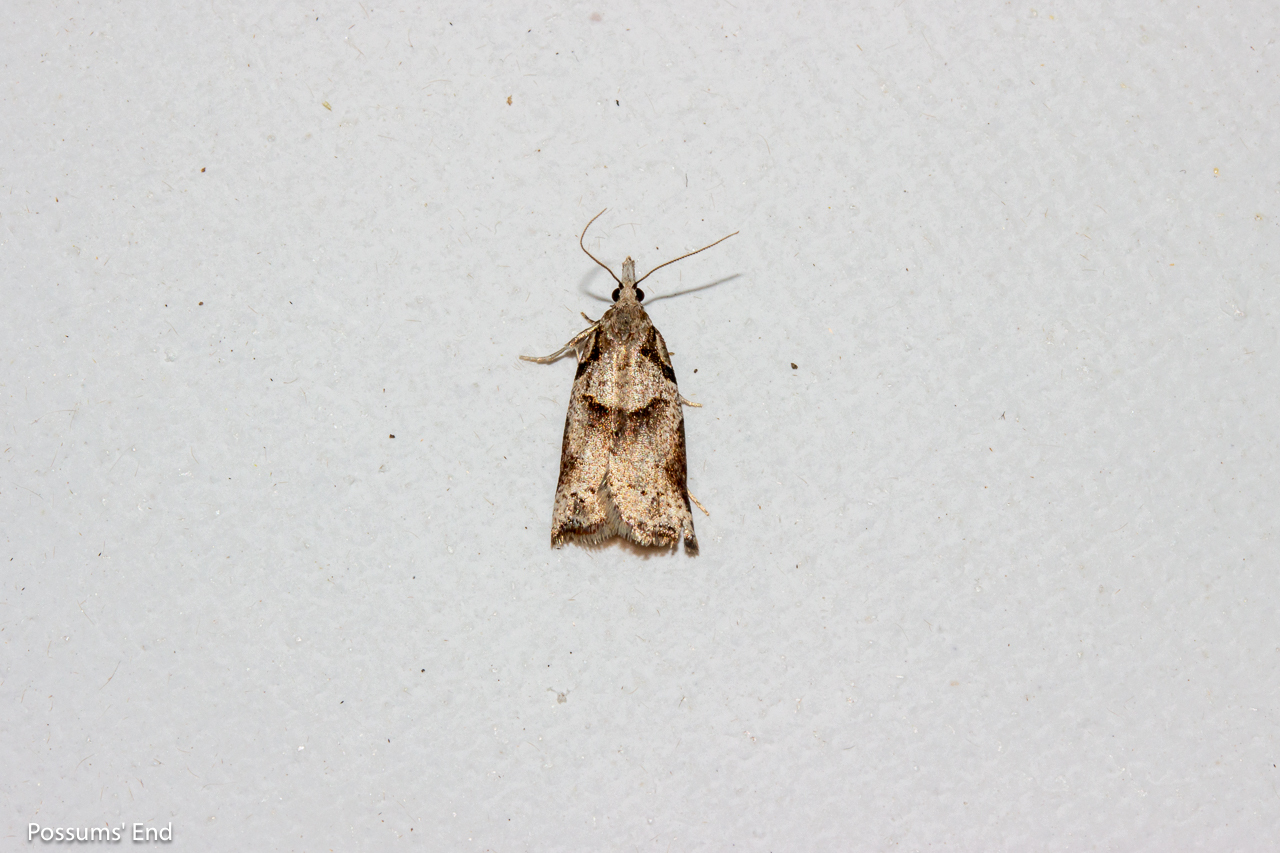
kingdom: Animalia
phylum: Arthropoda
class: Insecta
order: Lepidoptera
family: Tortricidae
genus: Harmologa
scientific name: Harmologa amplexana
